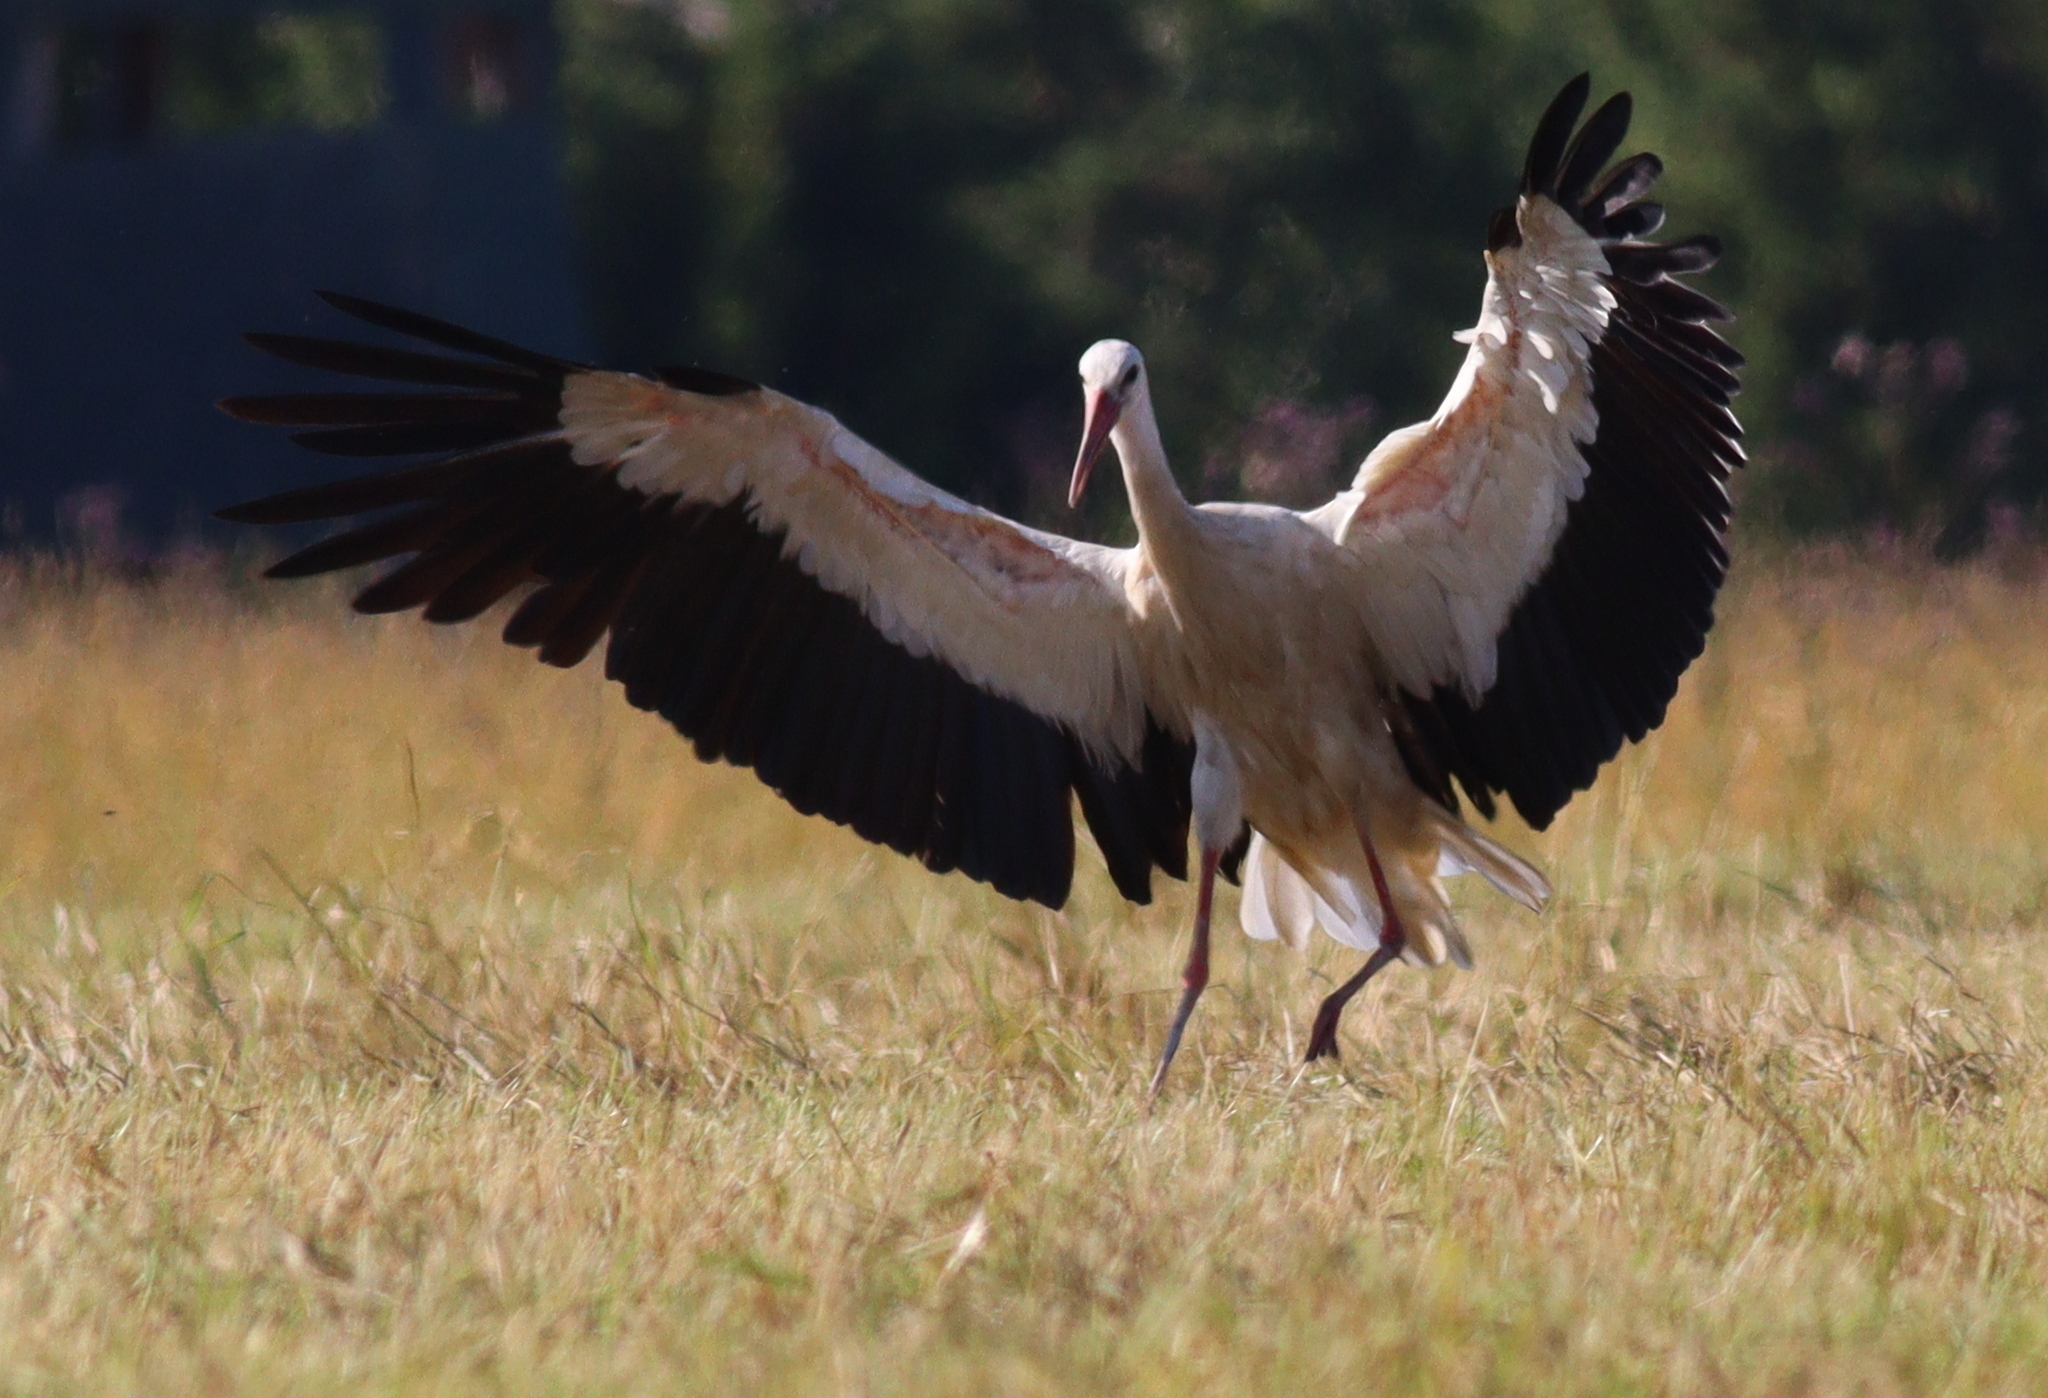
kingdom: Animalia
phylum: Chordata
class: Aves
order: Ciconiiformes
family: Ciconiidae
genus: Ciconia
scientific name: Ciconia ciconia
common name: White stork
